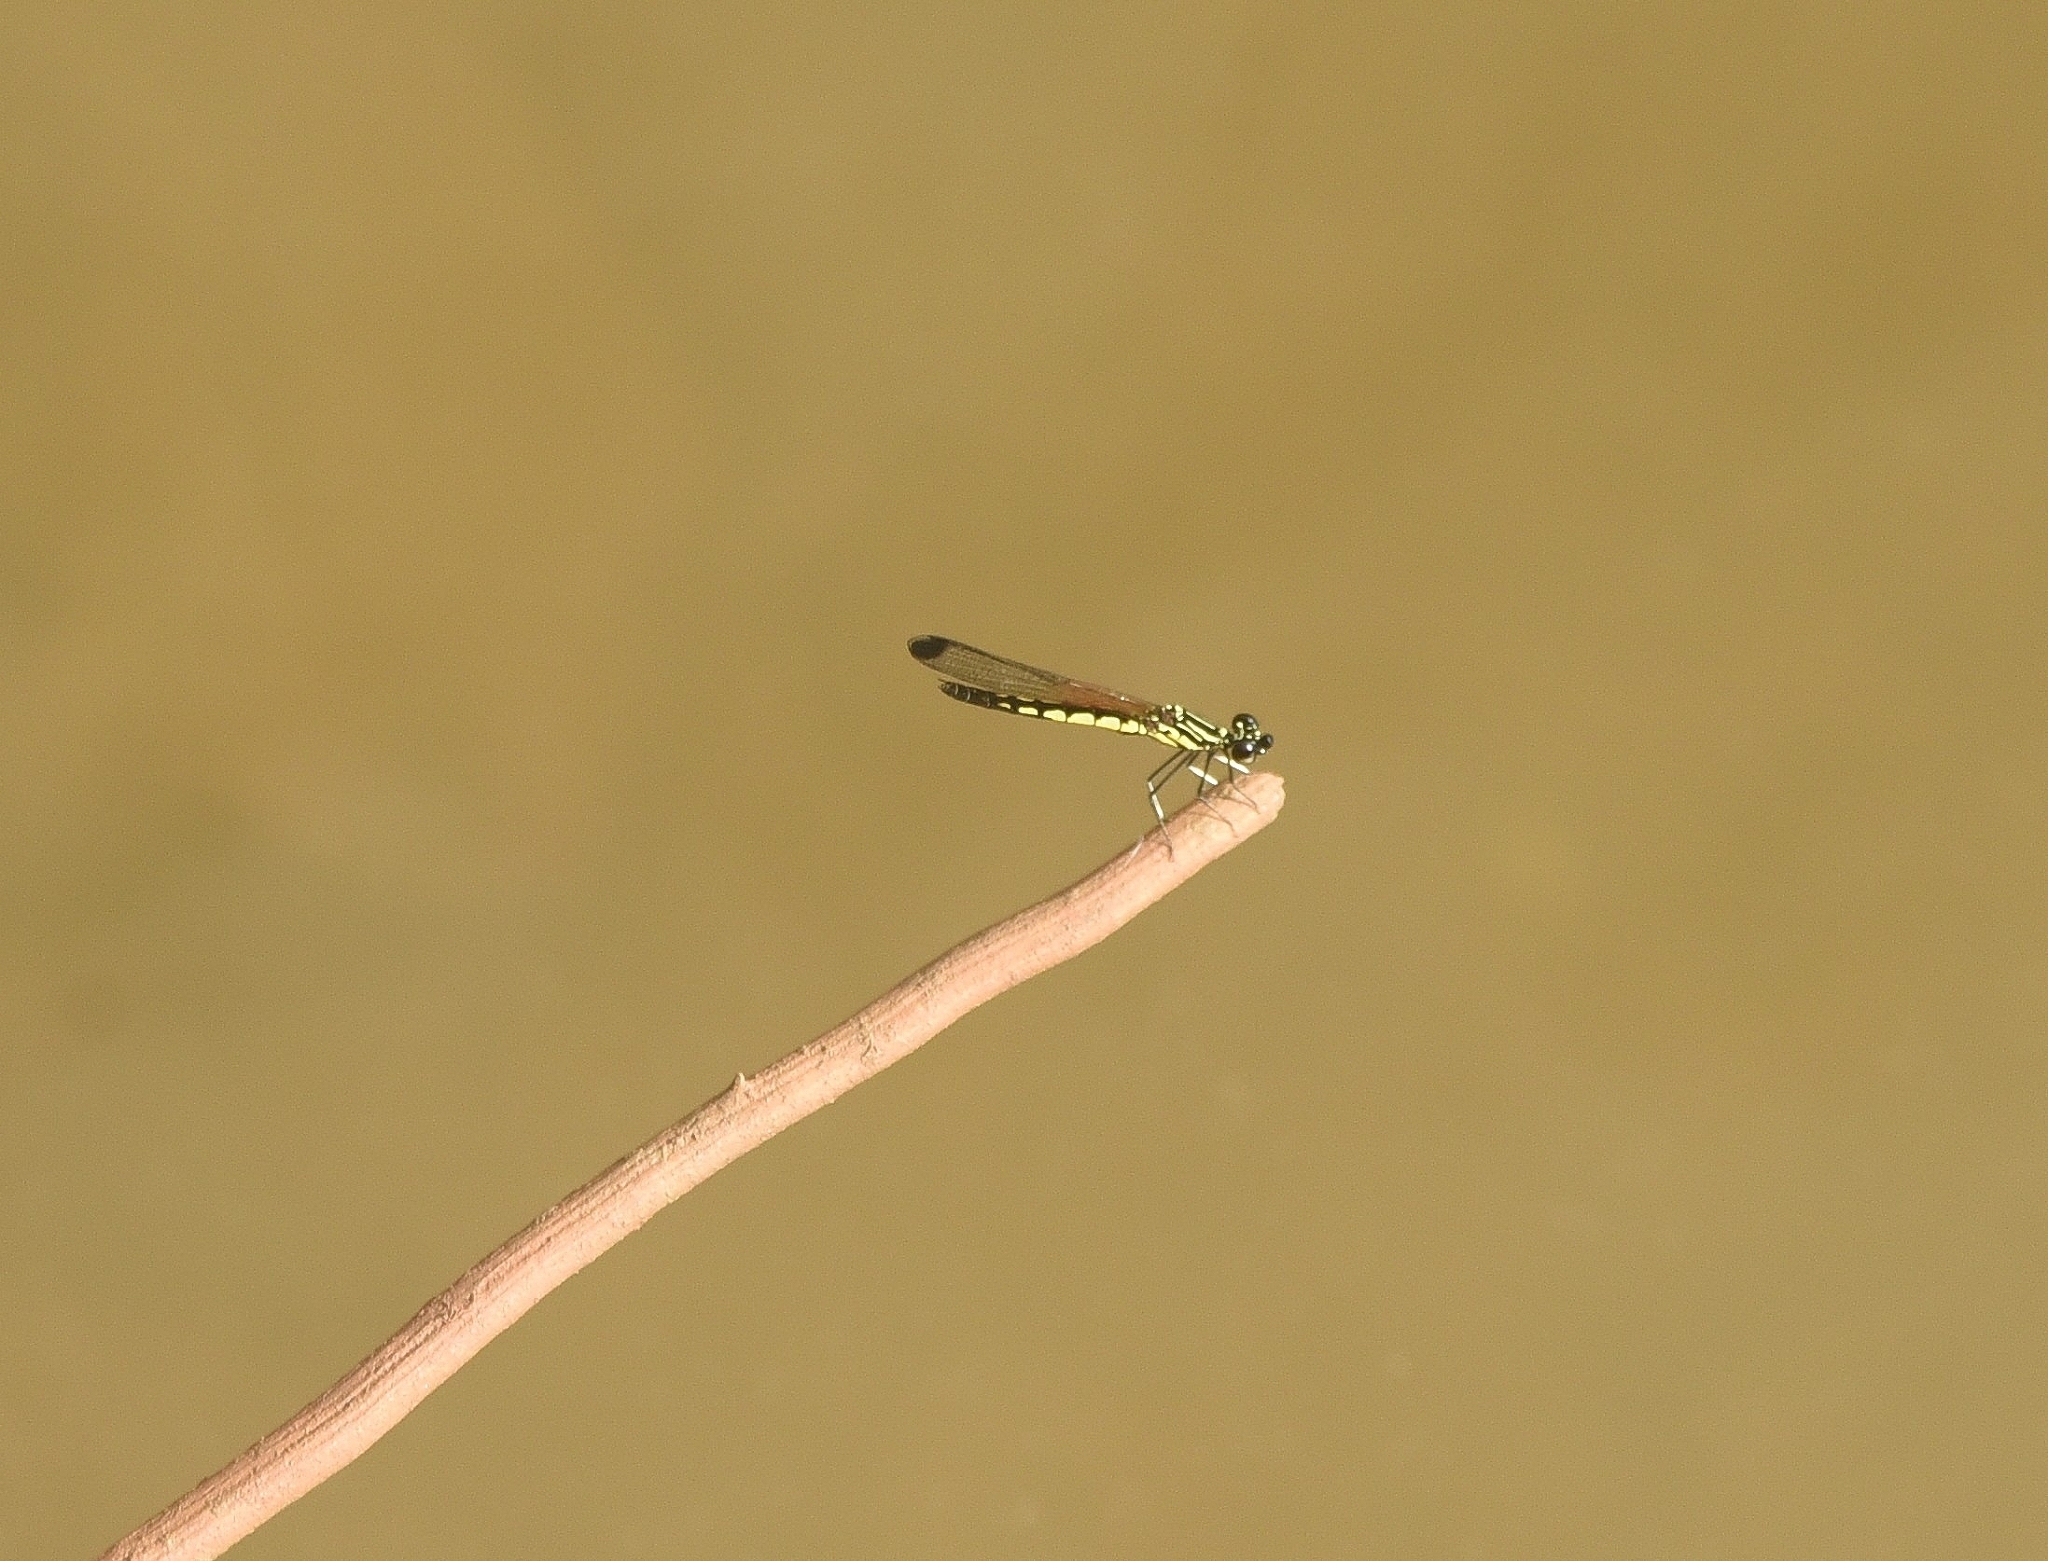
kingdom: Animalia
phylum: Arthropoda
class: Insecta
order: Odonata
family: Chlorocyphidae
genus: Libellago
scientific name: Libellago indica
